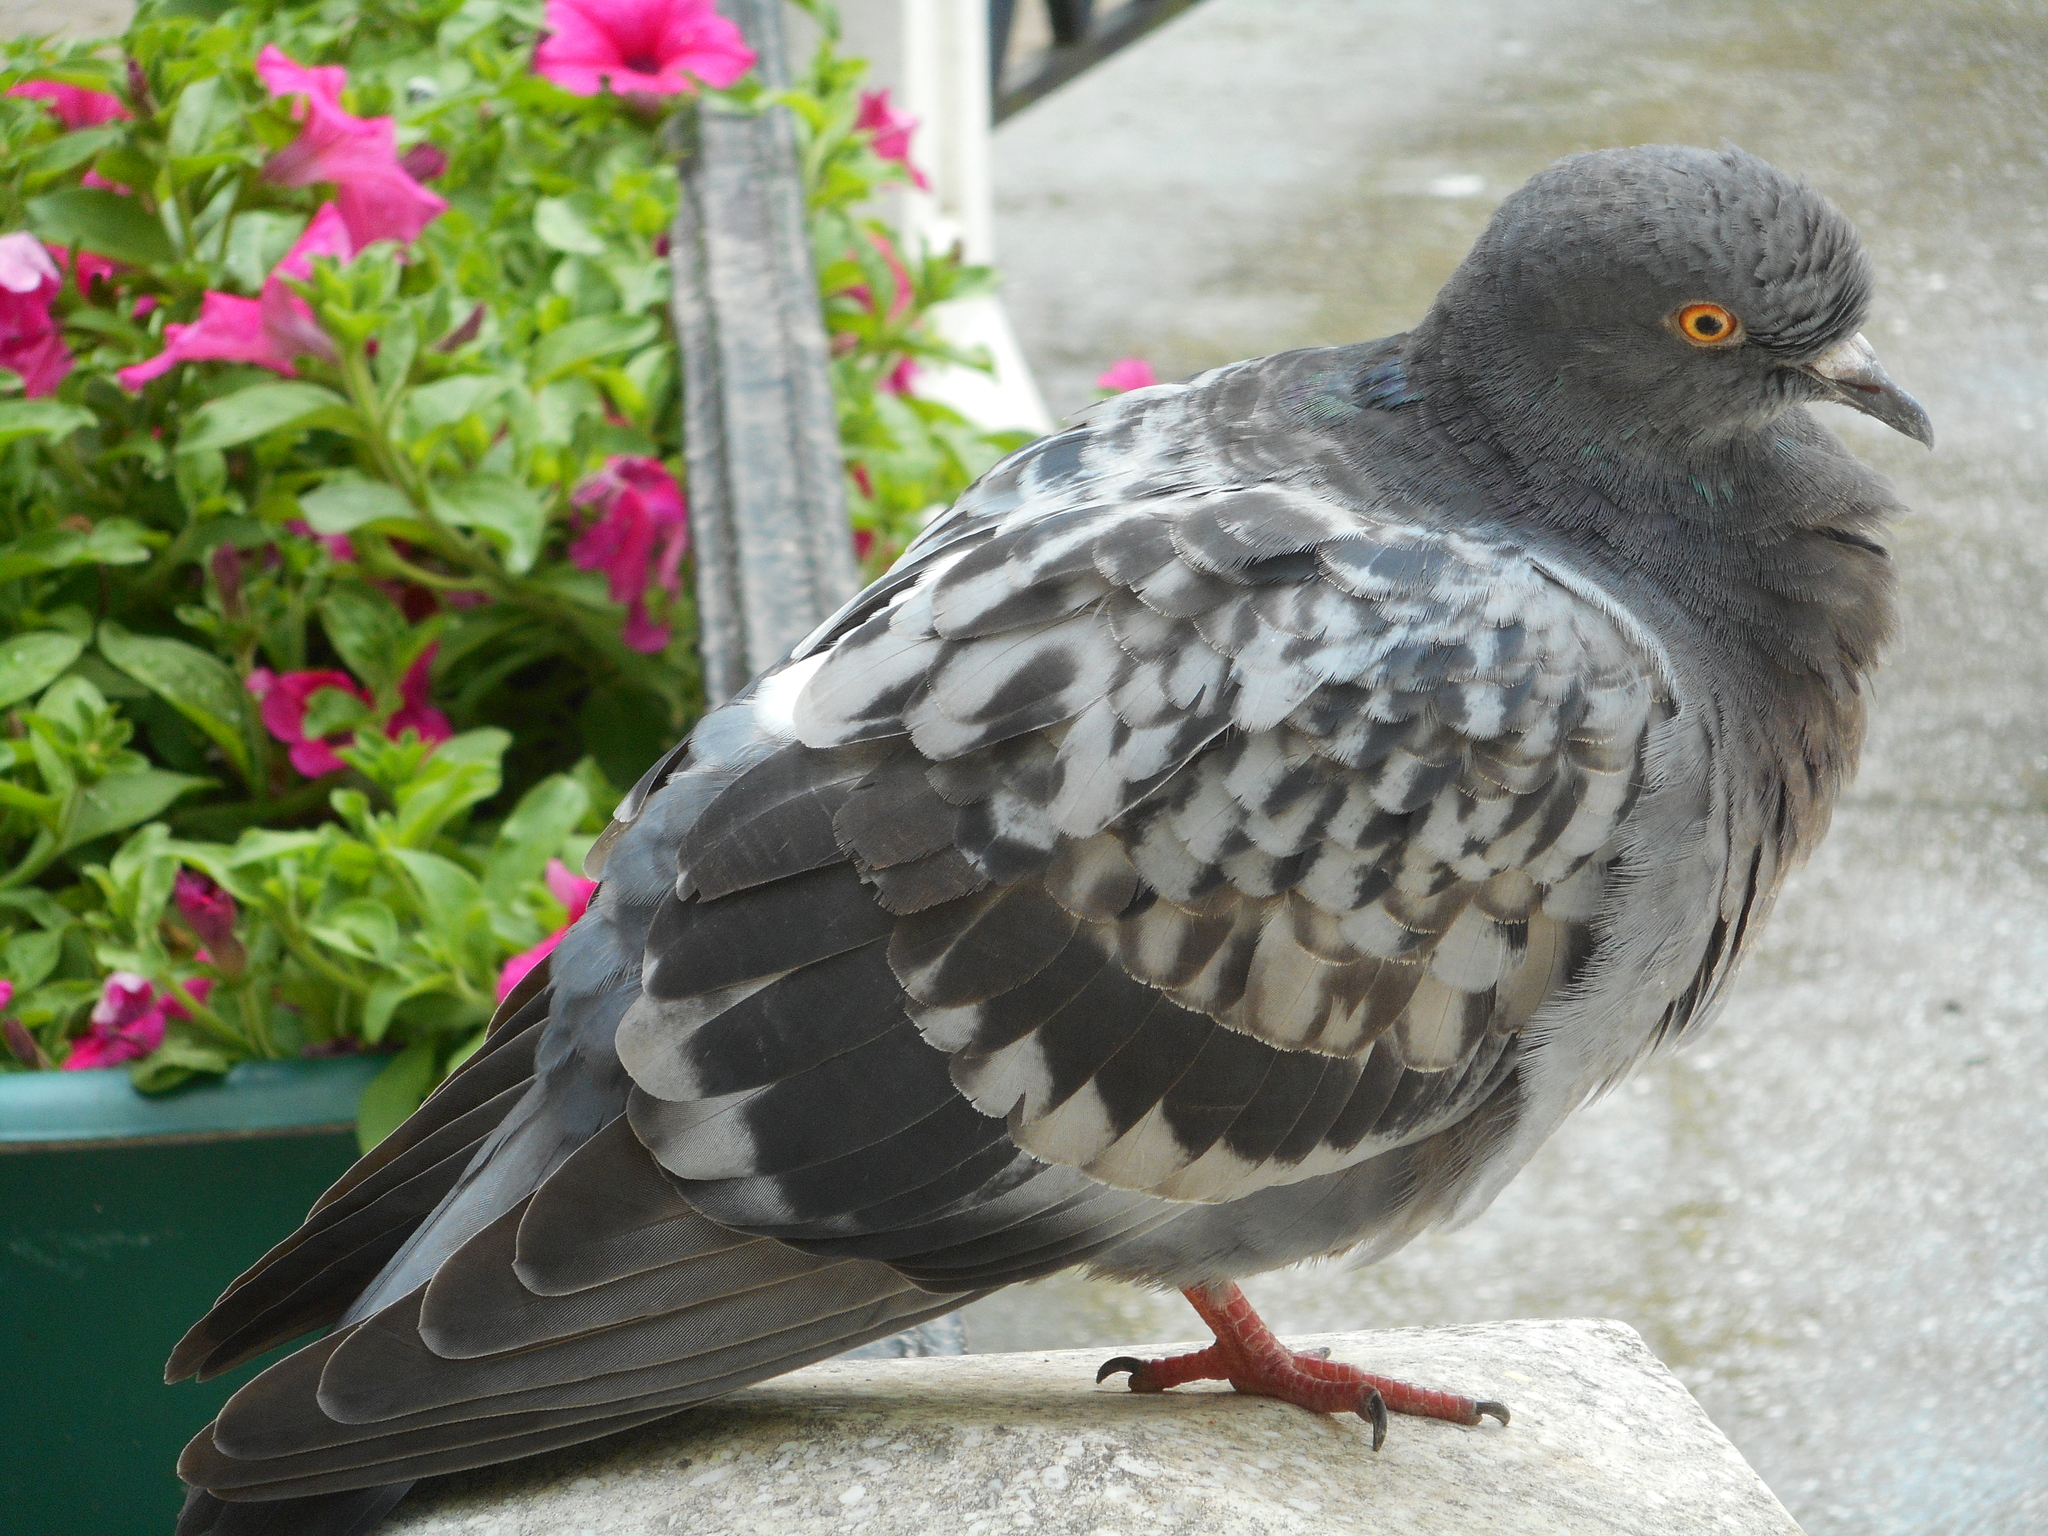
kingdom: Animalia
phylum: Chordata
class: Aves
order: Columbiformes
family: Columbidae
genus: Columba
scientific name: Columba livia
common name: Rock pigeon
